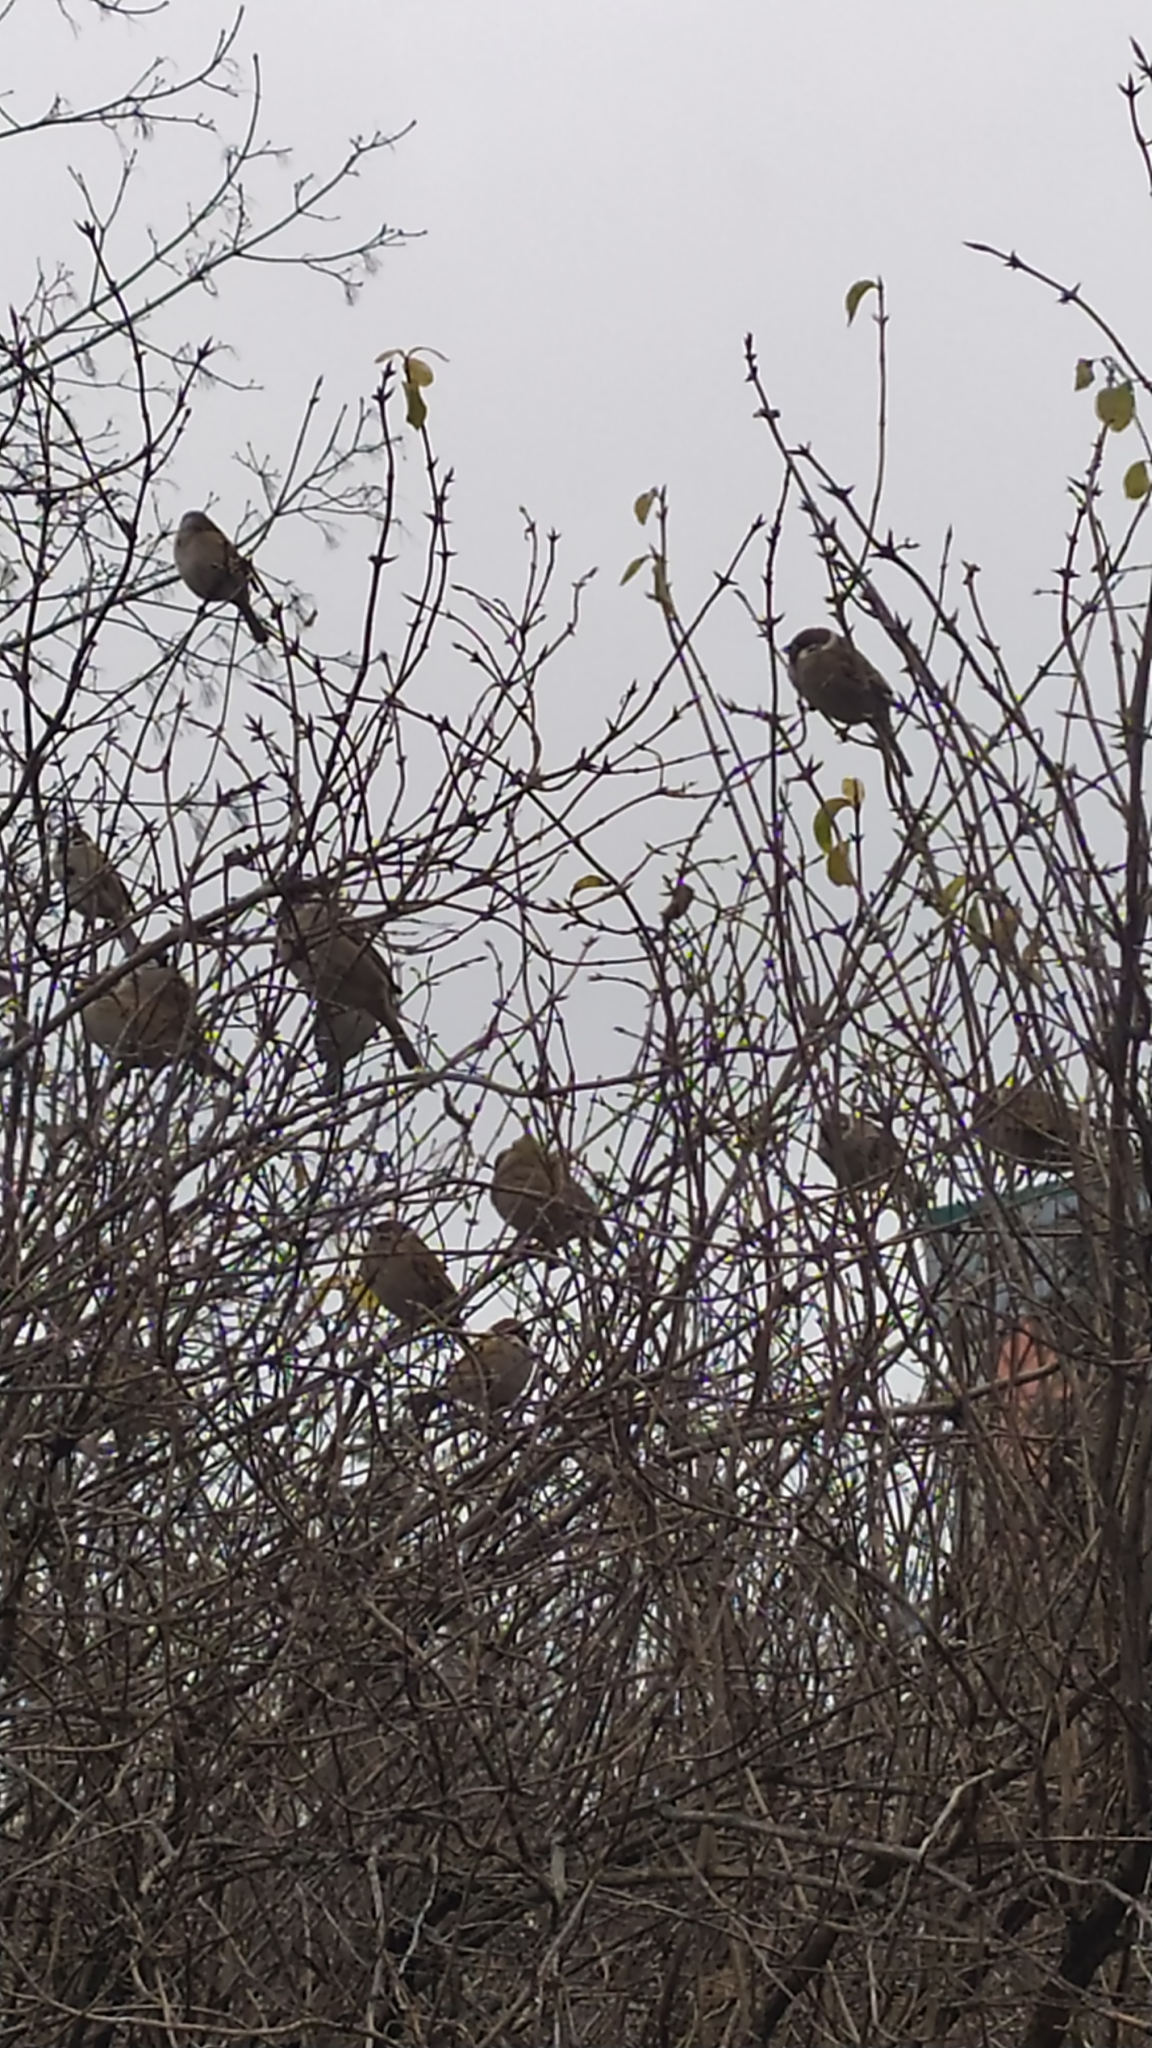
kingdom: Animalia
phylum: Chordata
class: Aves
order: Passeriformes
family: Passeridae
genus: Passer
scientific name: Passer montanus
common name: Eurasian tree sparrow
